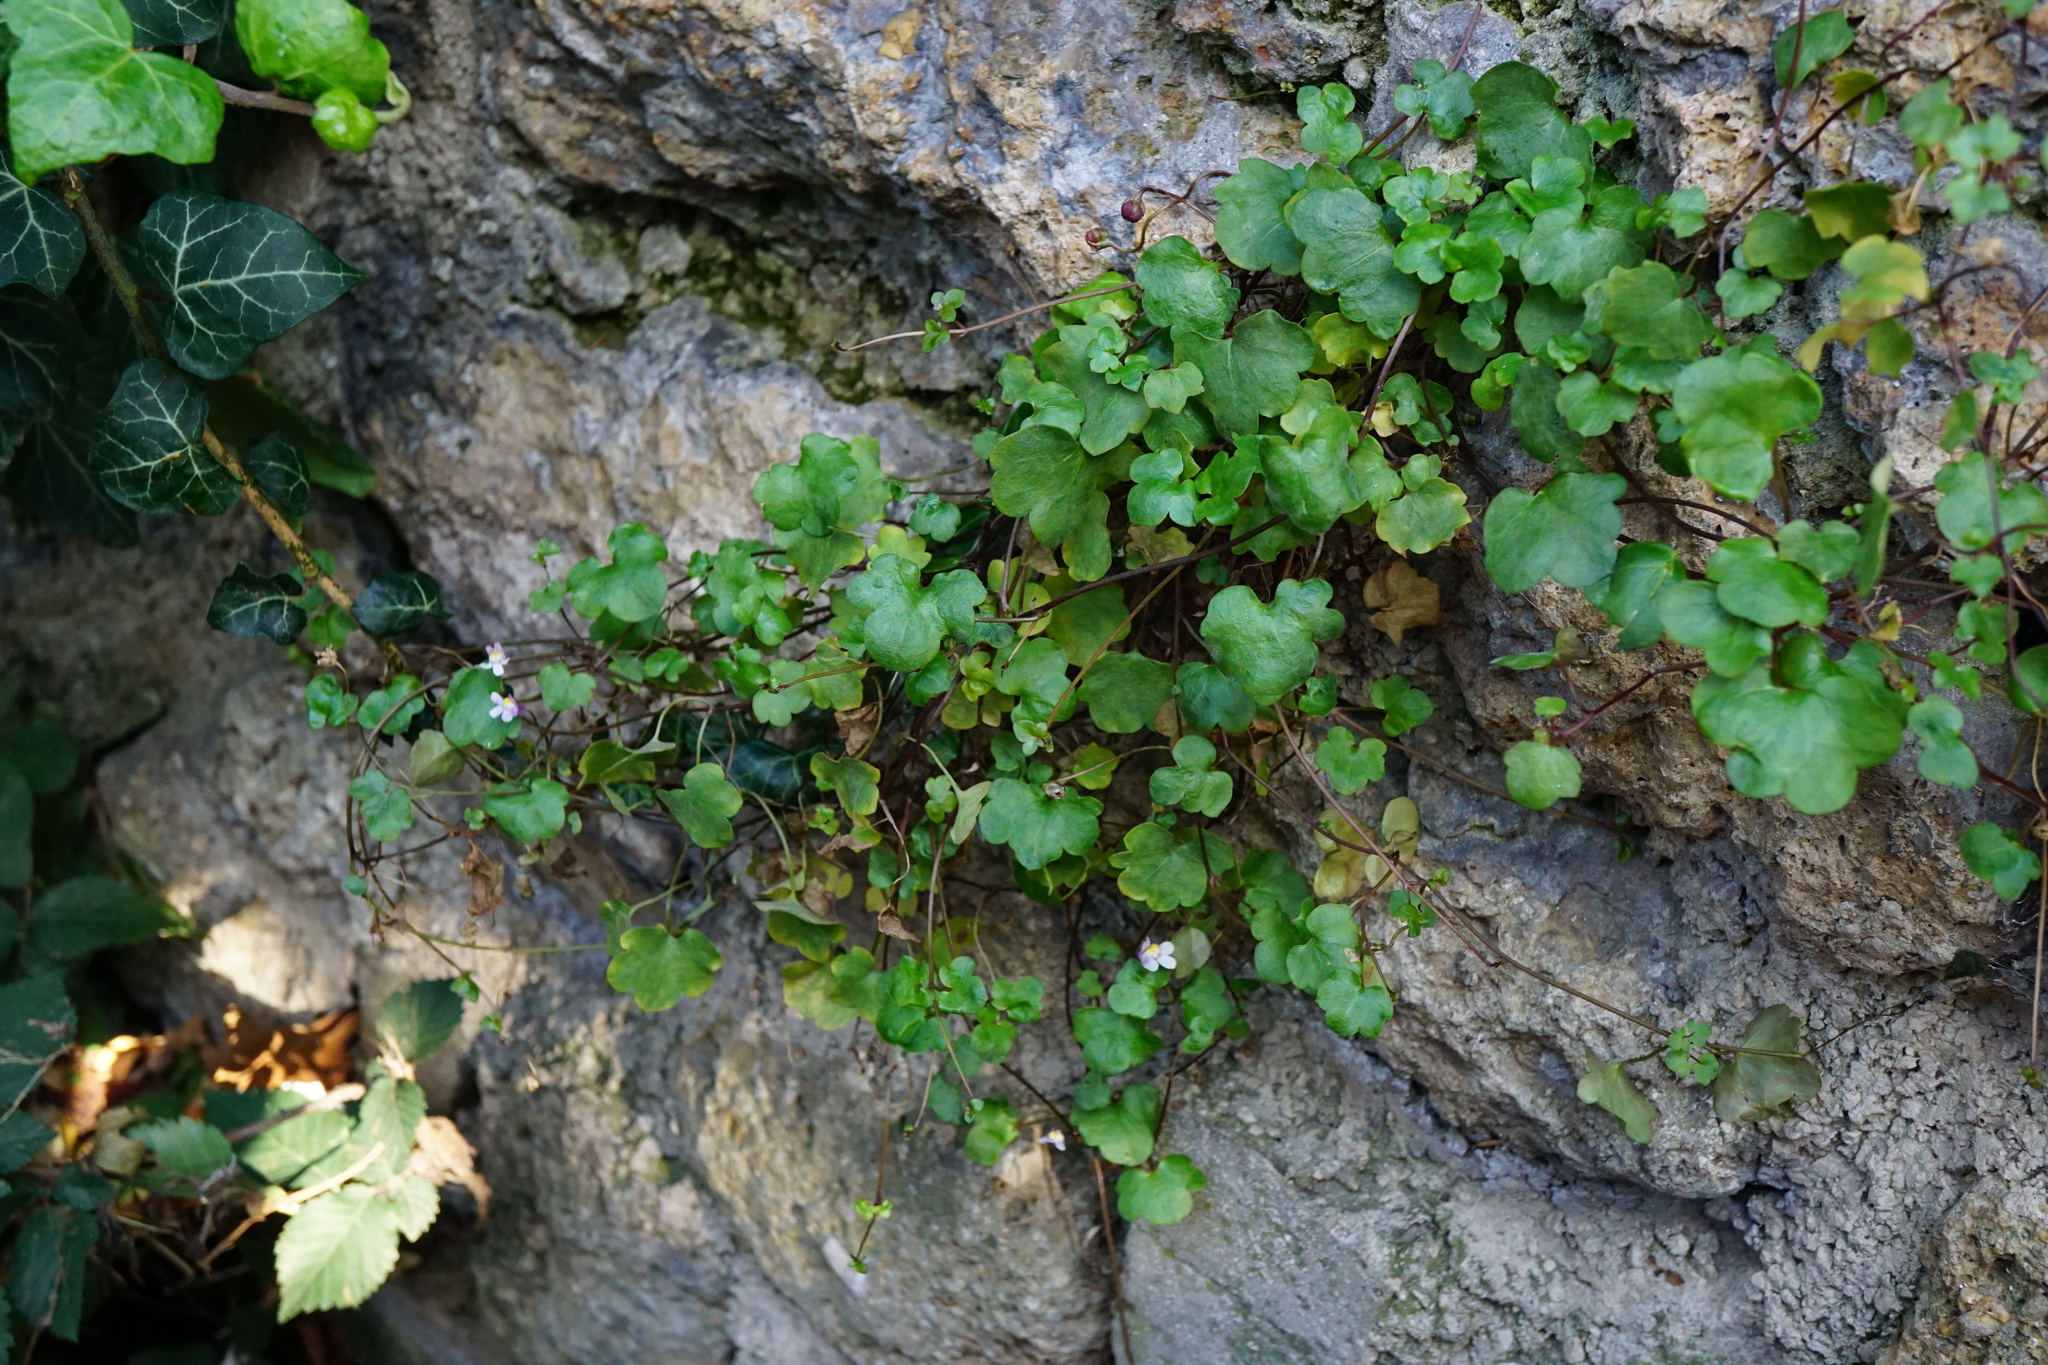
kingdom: Plantae
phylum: Tracheophyta
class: Magnoliopsida
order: Lamiales
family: Plantaginaceae
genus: Cymbalaria
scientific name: Cymbalaria muralis
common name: Ivy-leaved toadflax
